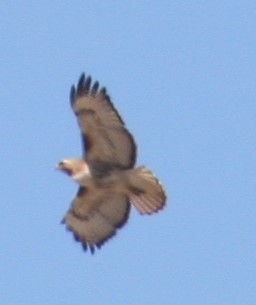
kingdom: Animalia
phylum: Chordata
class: Aves
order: Accipitriformes
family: Accipitridae
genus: Buteo
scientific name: Buteo jamaicensis
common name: Red-tailed hawk
